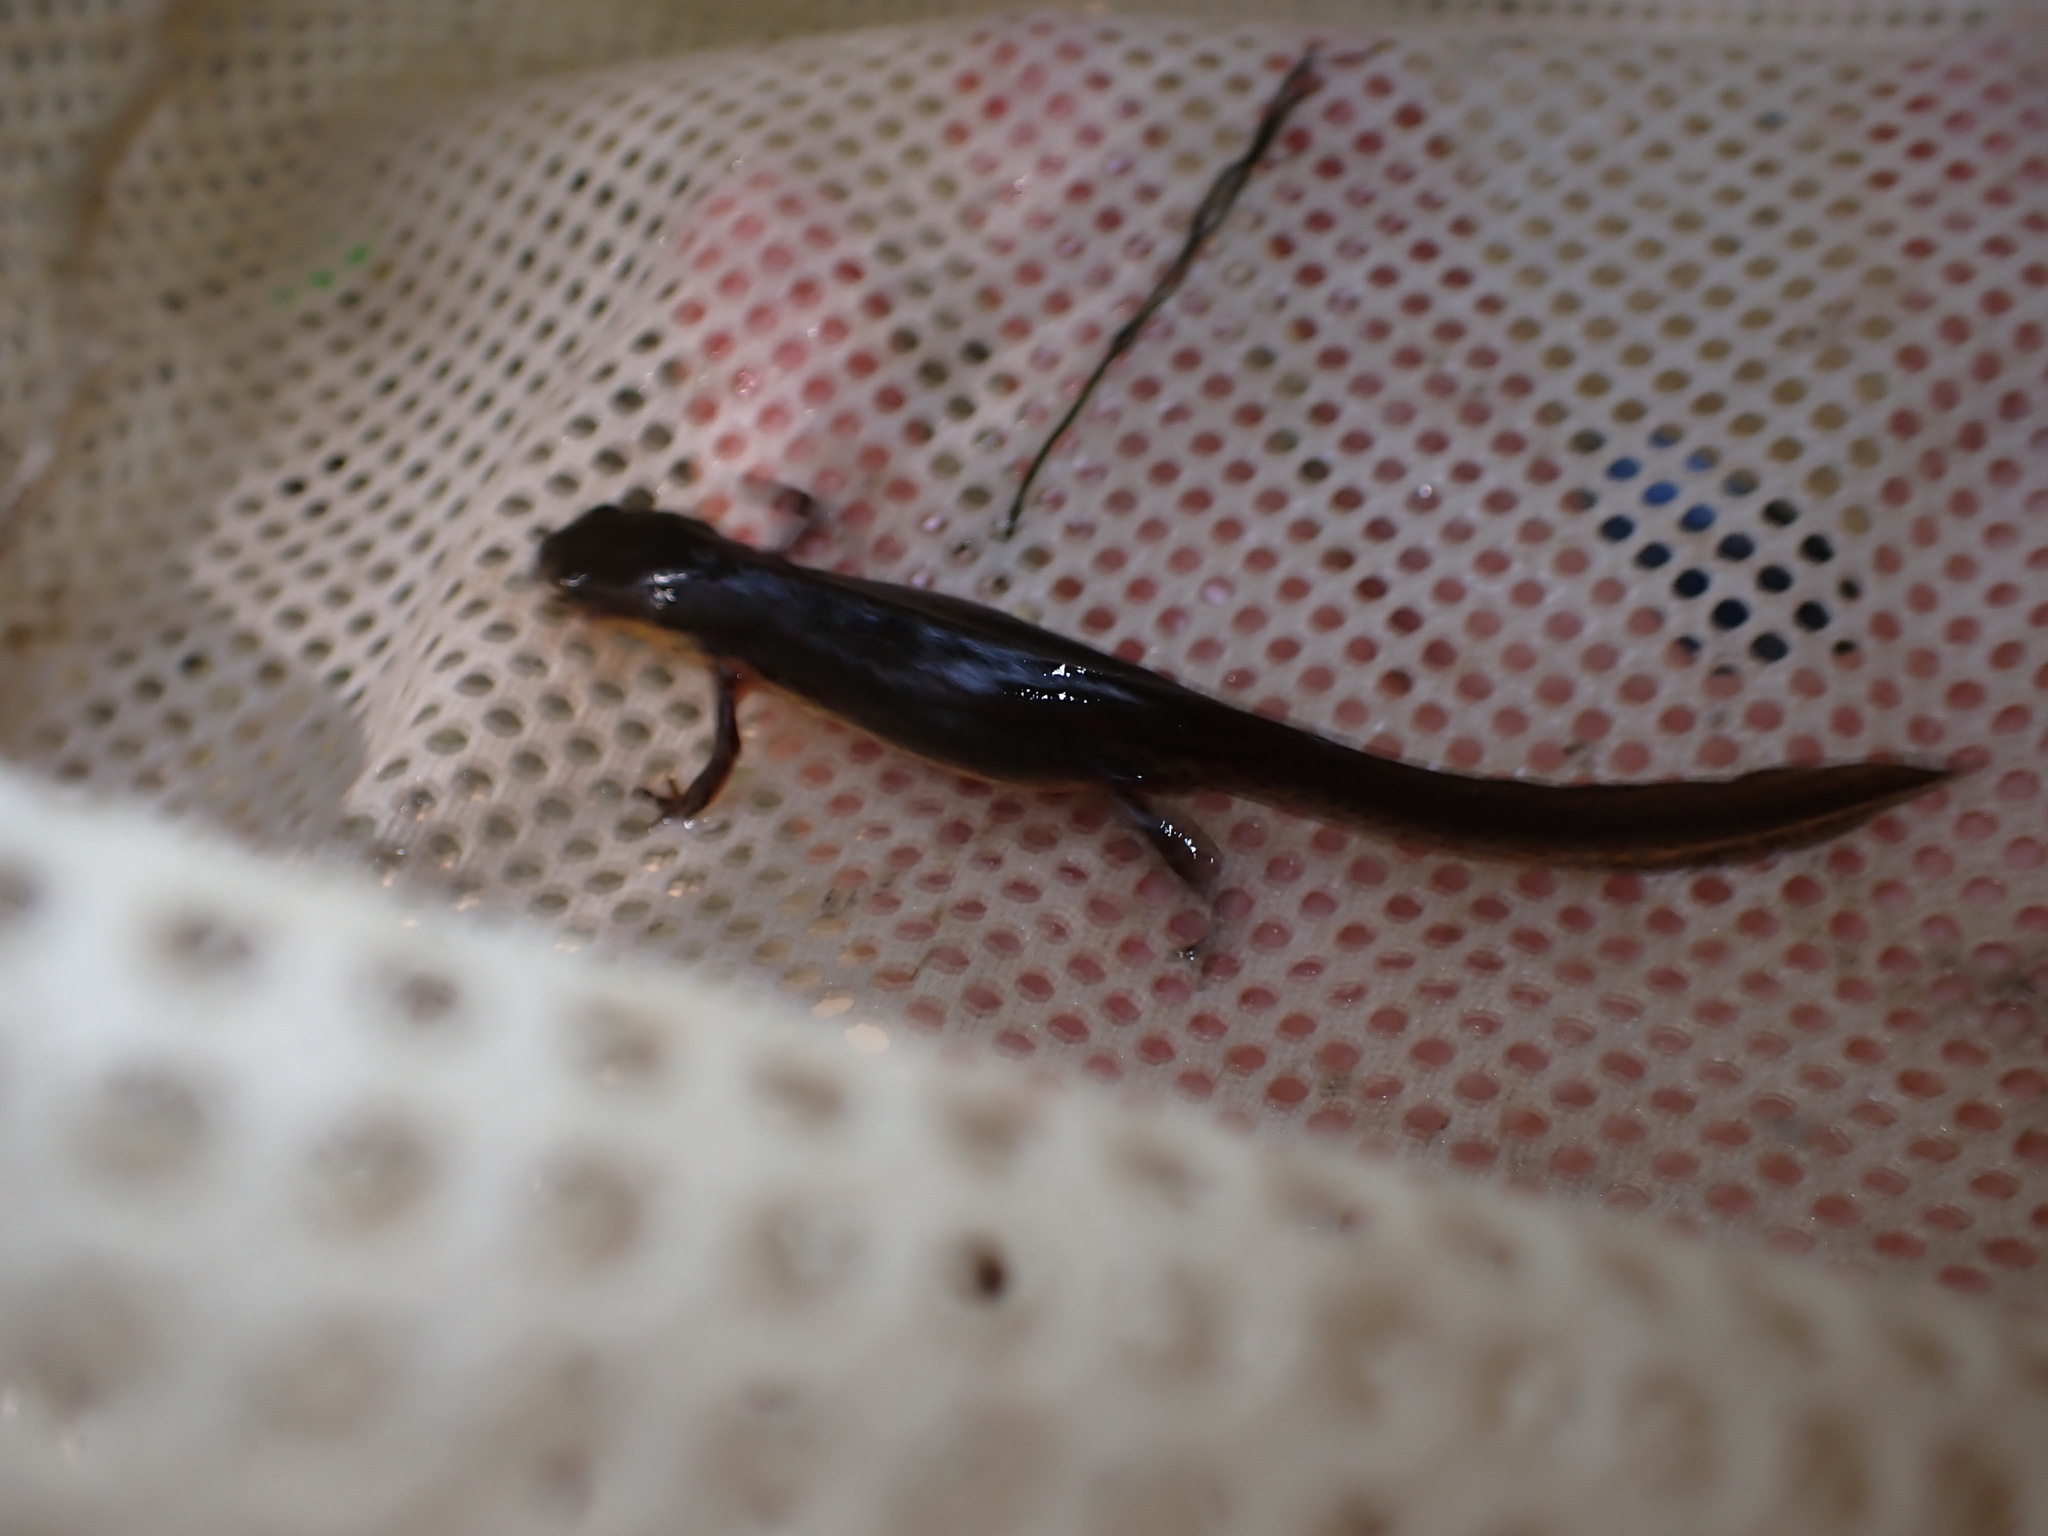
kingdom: Animalia
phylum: Chordata
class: Amphibia
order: Caudata
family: Salamandridae
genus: Notophthalmus
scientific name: Notophthalmus viridescens
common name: Eastern newt
